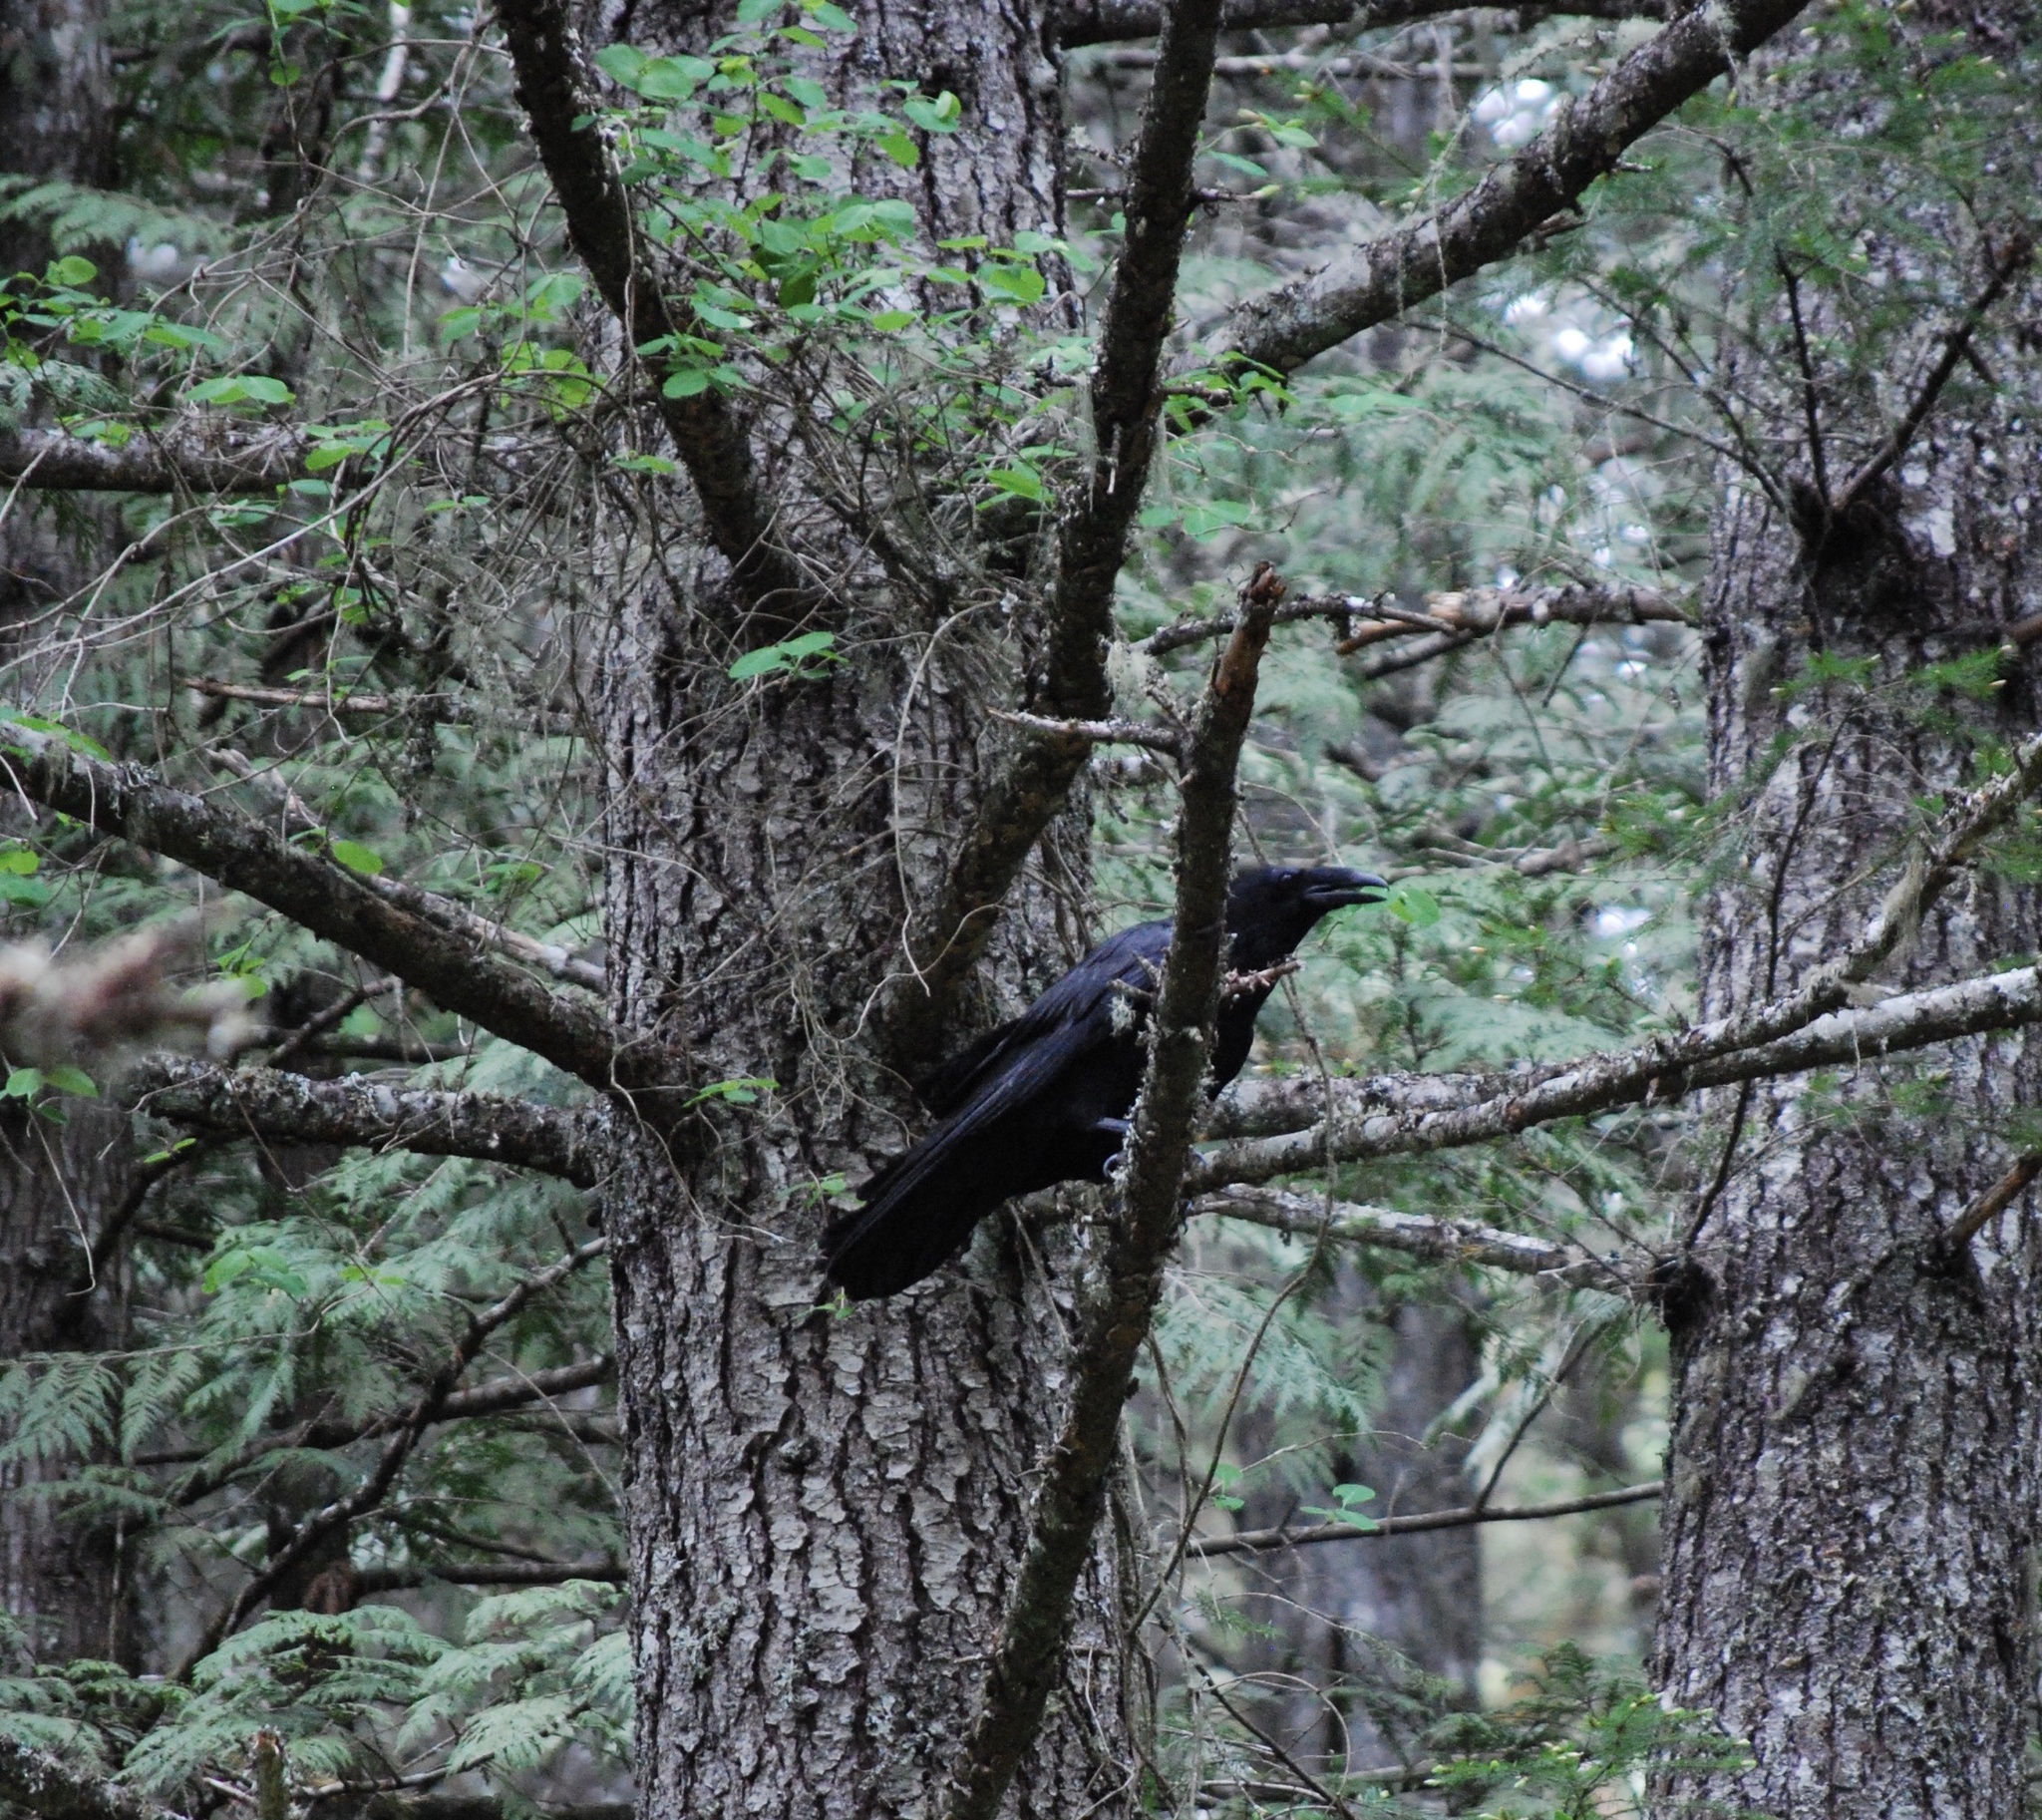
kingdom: Animalia
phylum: Chordata
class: Aves
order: Passeriformes
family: Corvidae
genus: Corvus
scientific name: Corvus corax
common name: Common raven
